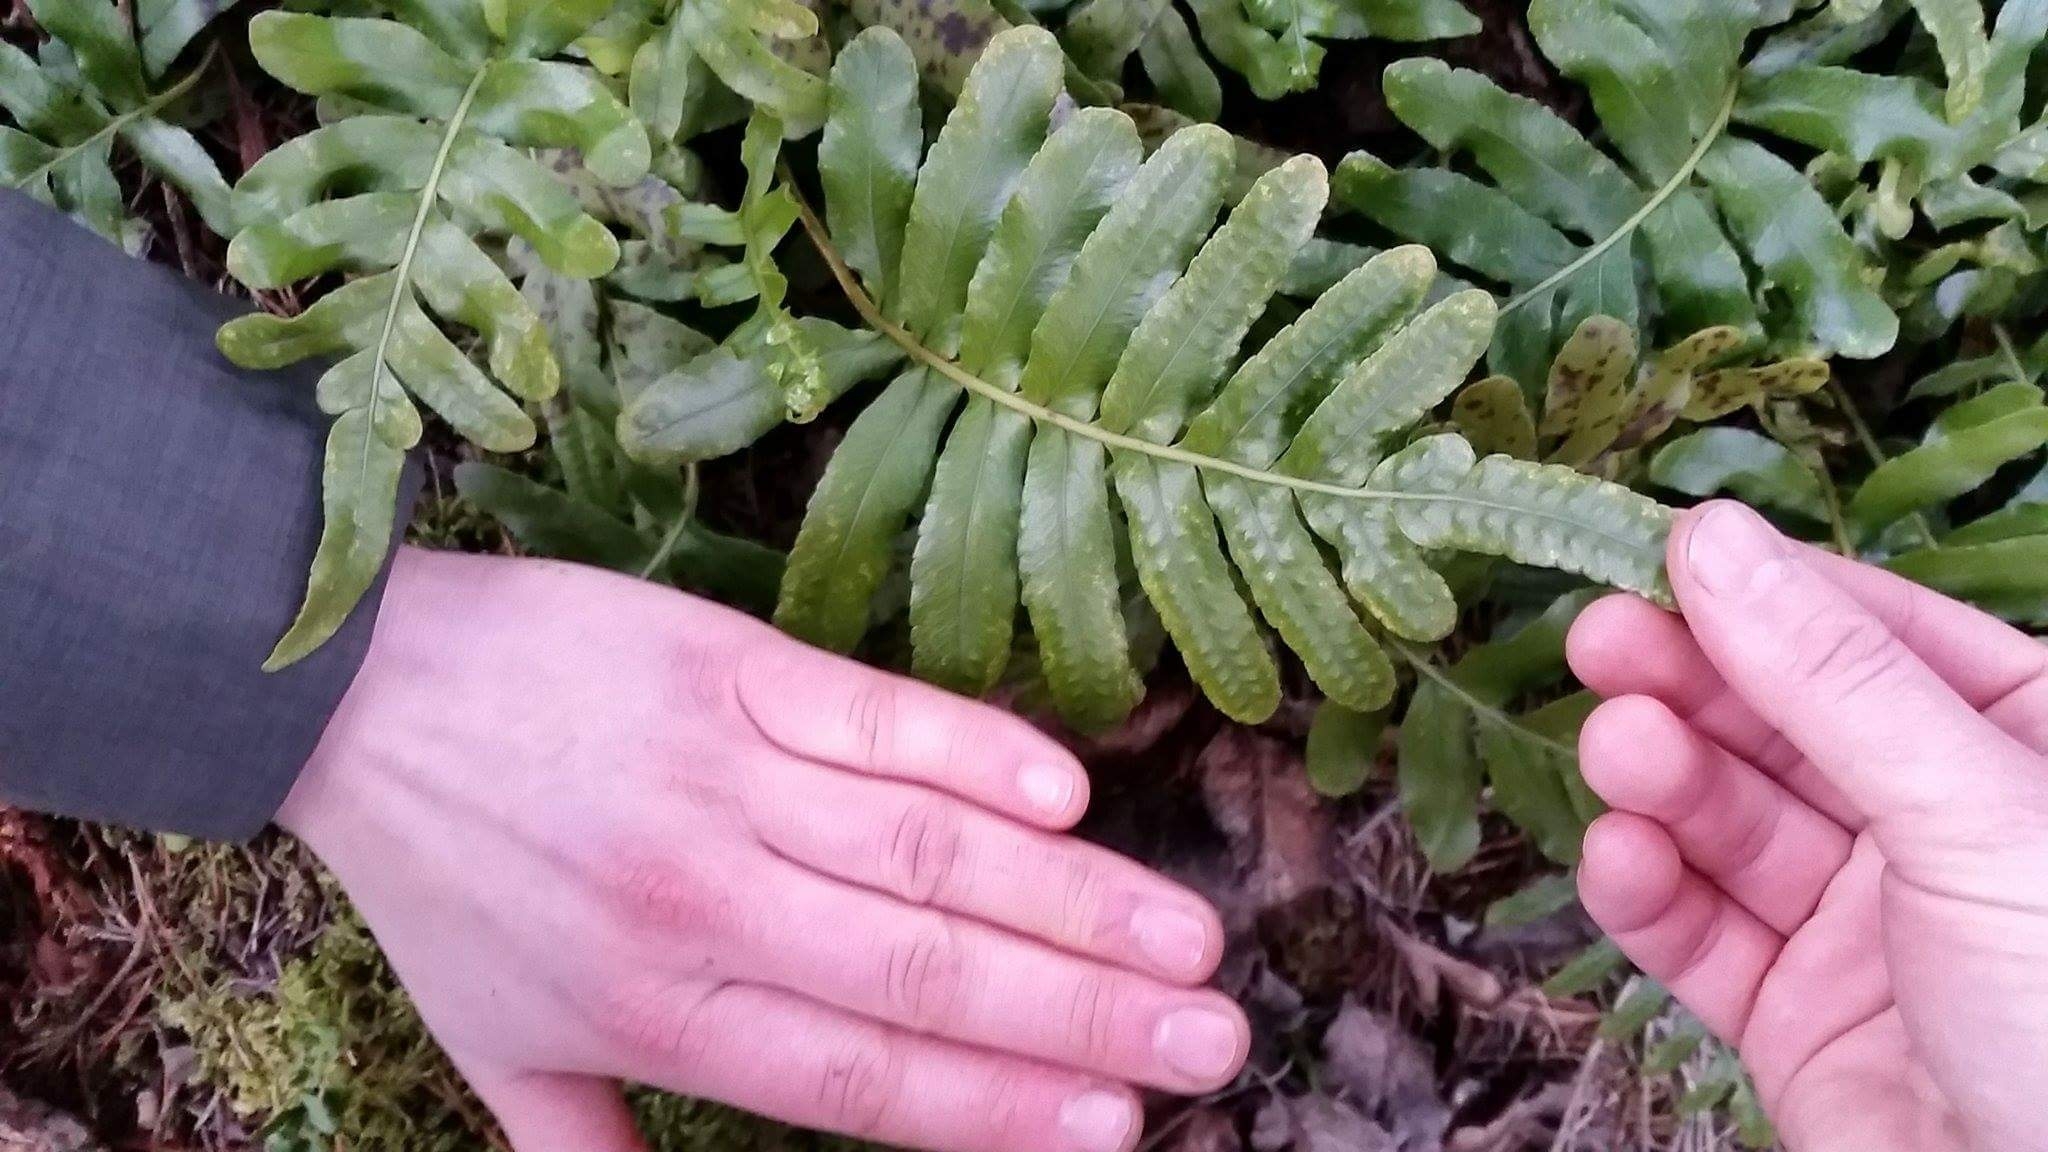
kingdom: Plantae
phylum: Tracheophyta
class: Polypodiopsida
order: Polypodiales
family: Polypodiaceae
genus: Polypodium
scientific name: Polypodium scouleri
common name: Scouler's polypody
